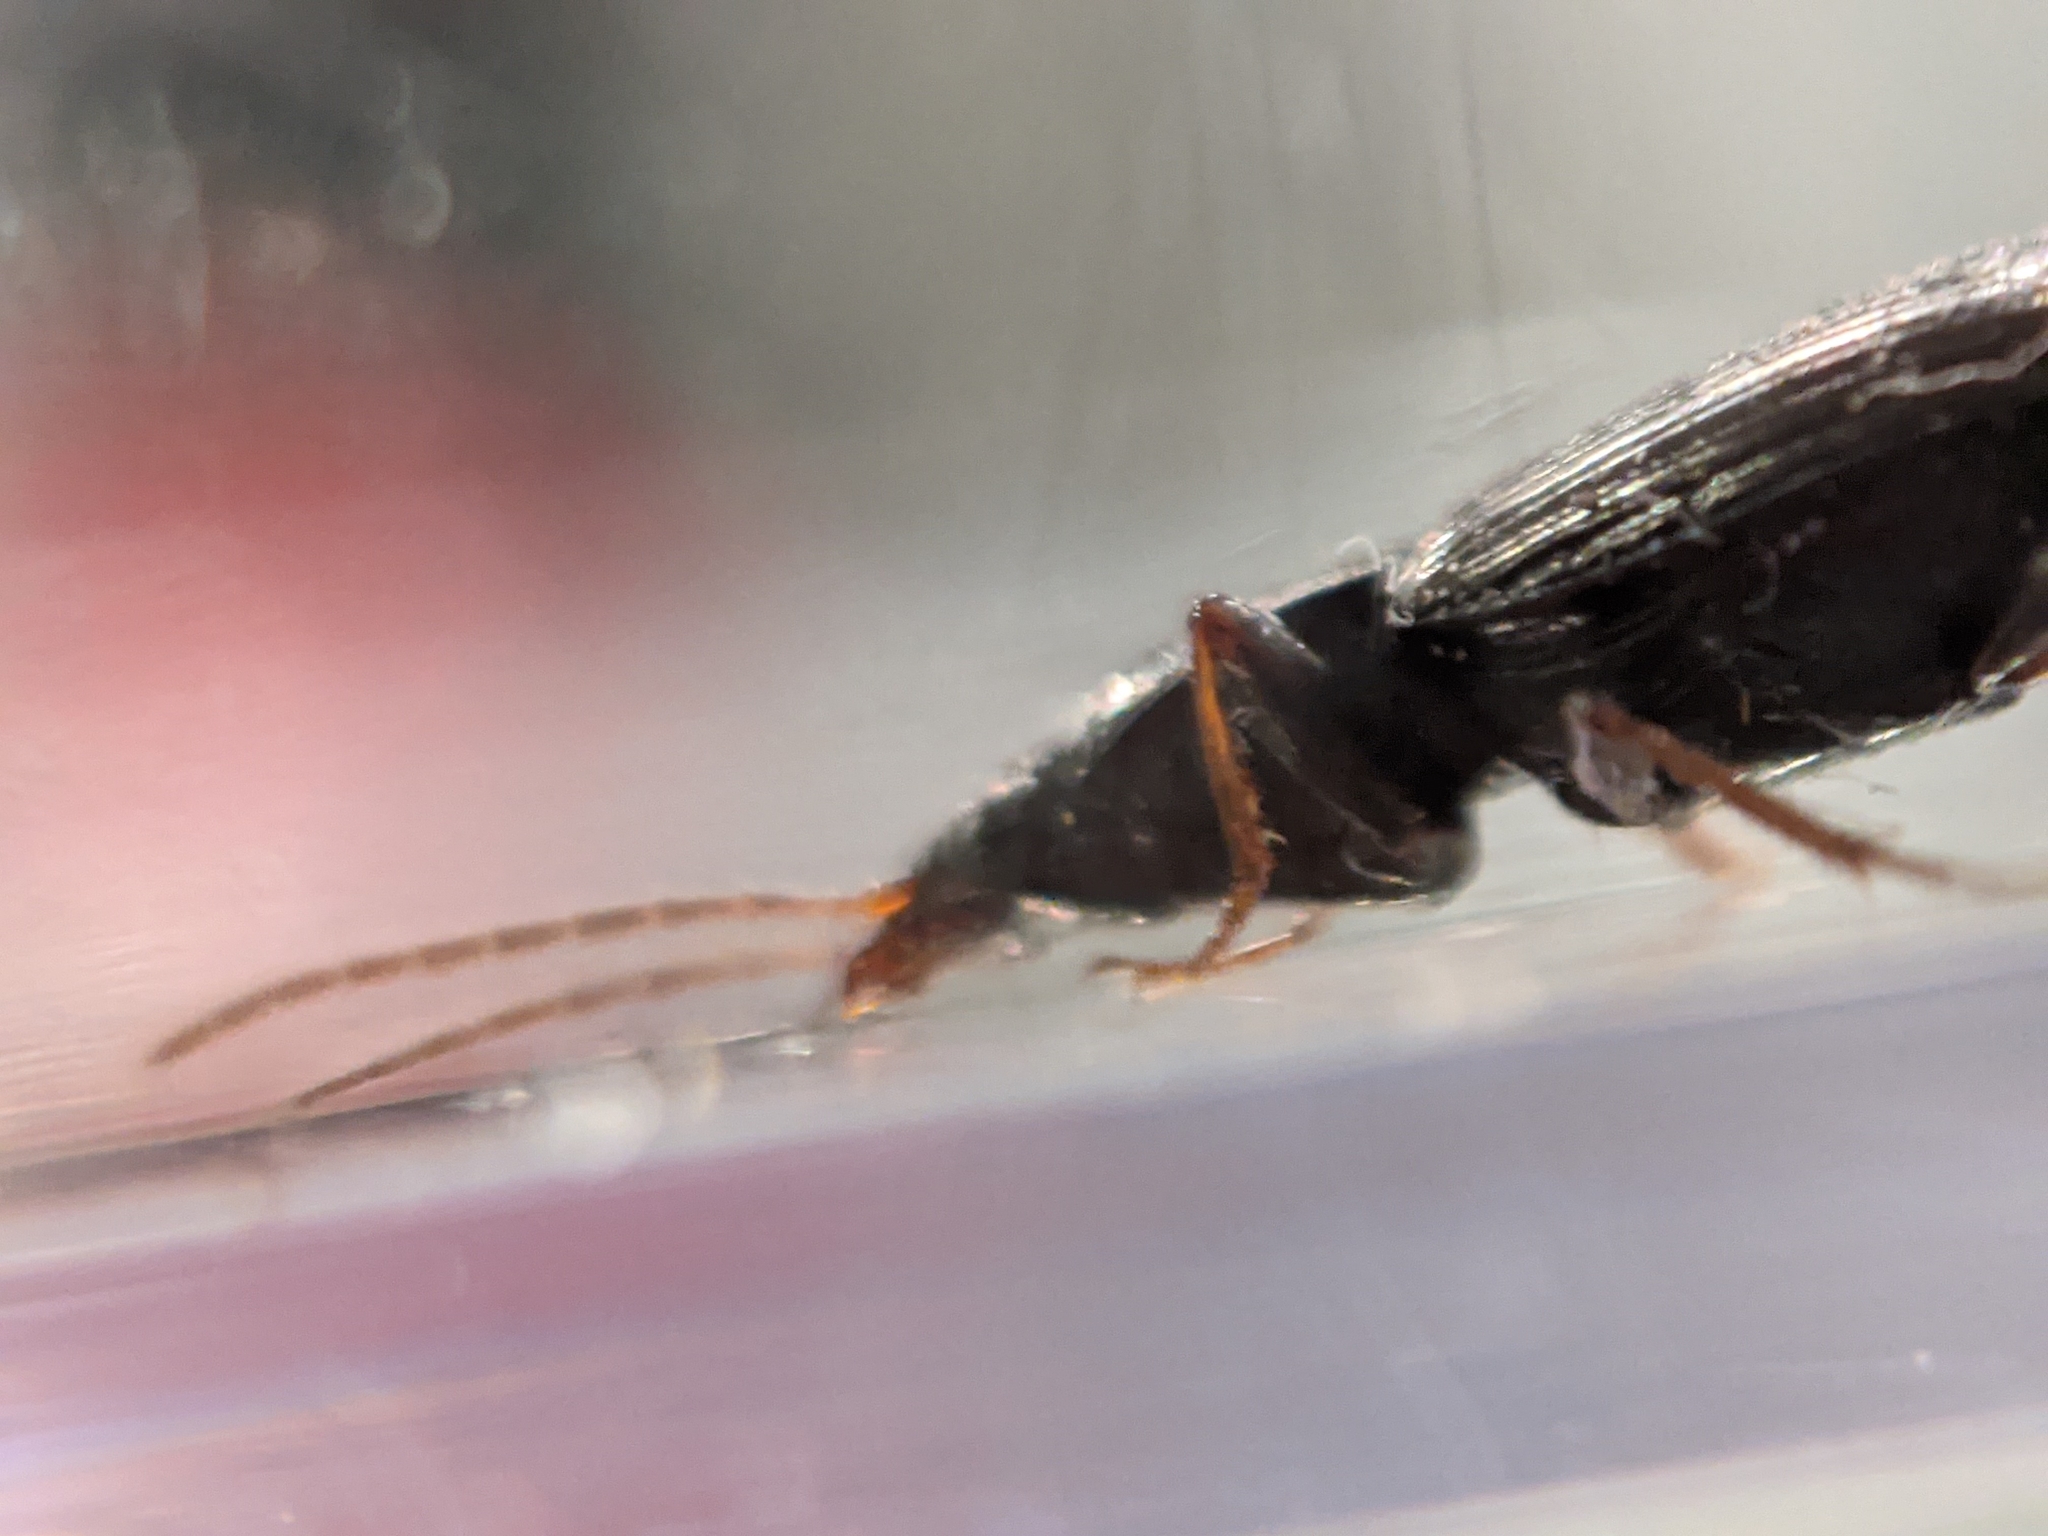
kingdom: Animalia
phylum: Arthropoda
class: Insecta
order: Coleoptera
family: Carabidae
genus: Agonum
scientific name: Agonum punctiforme
